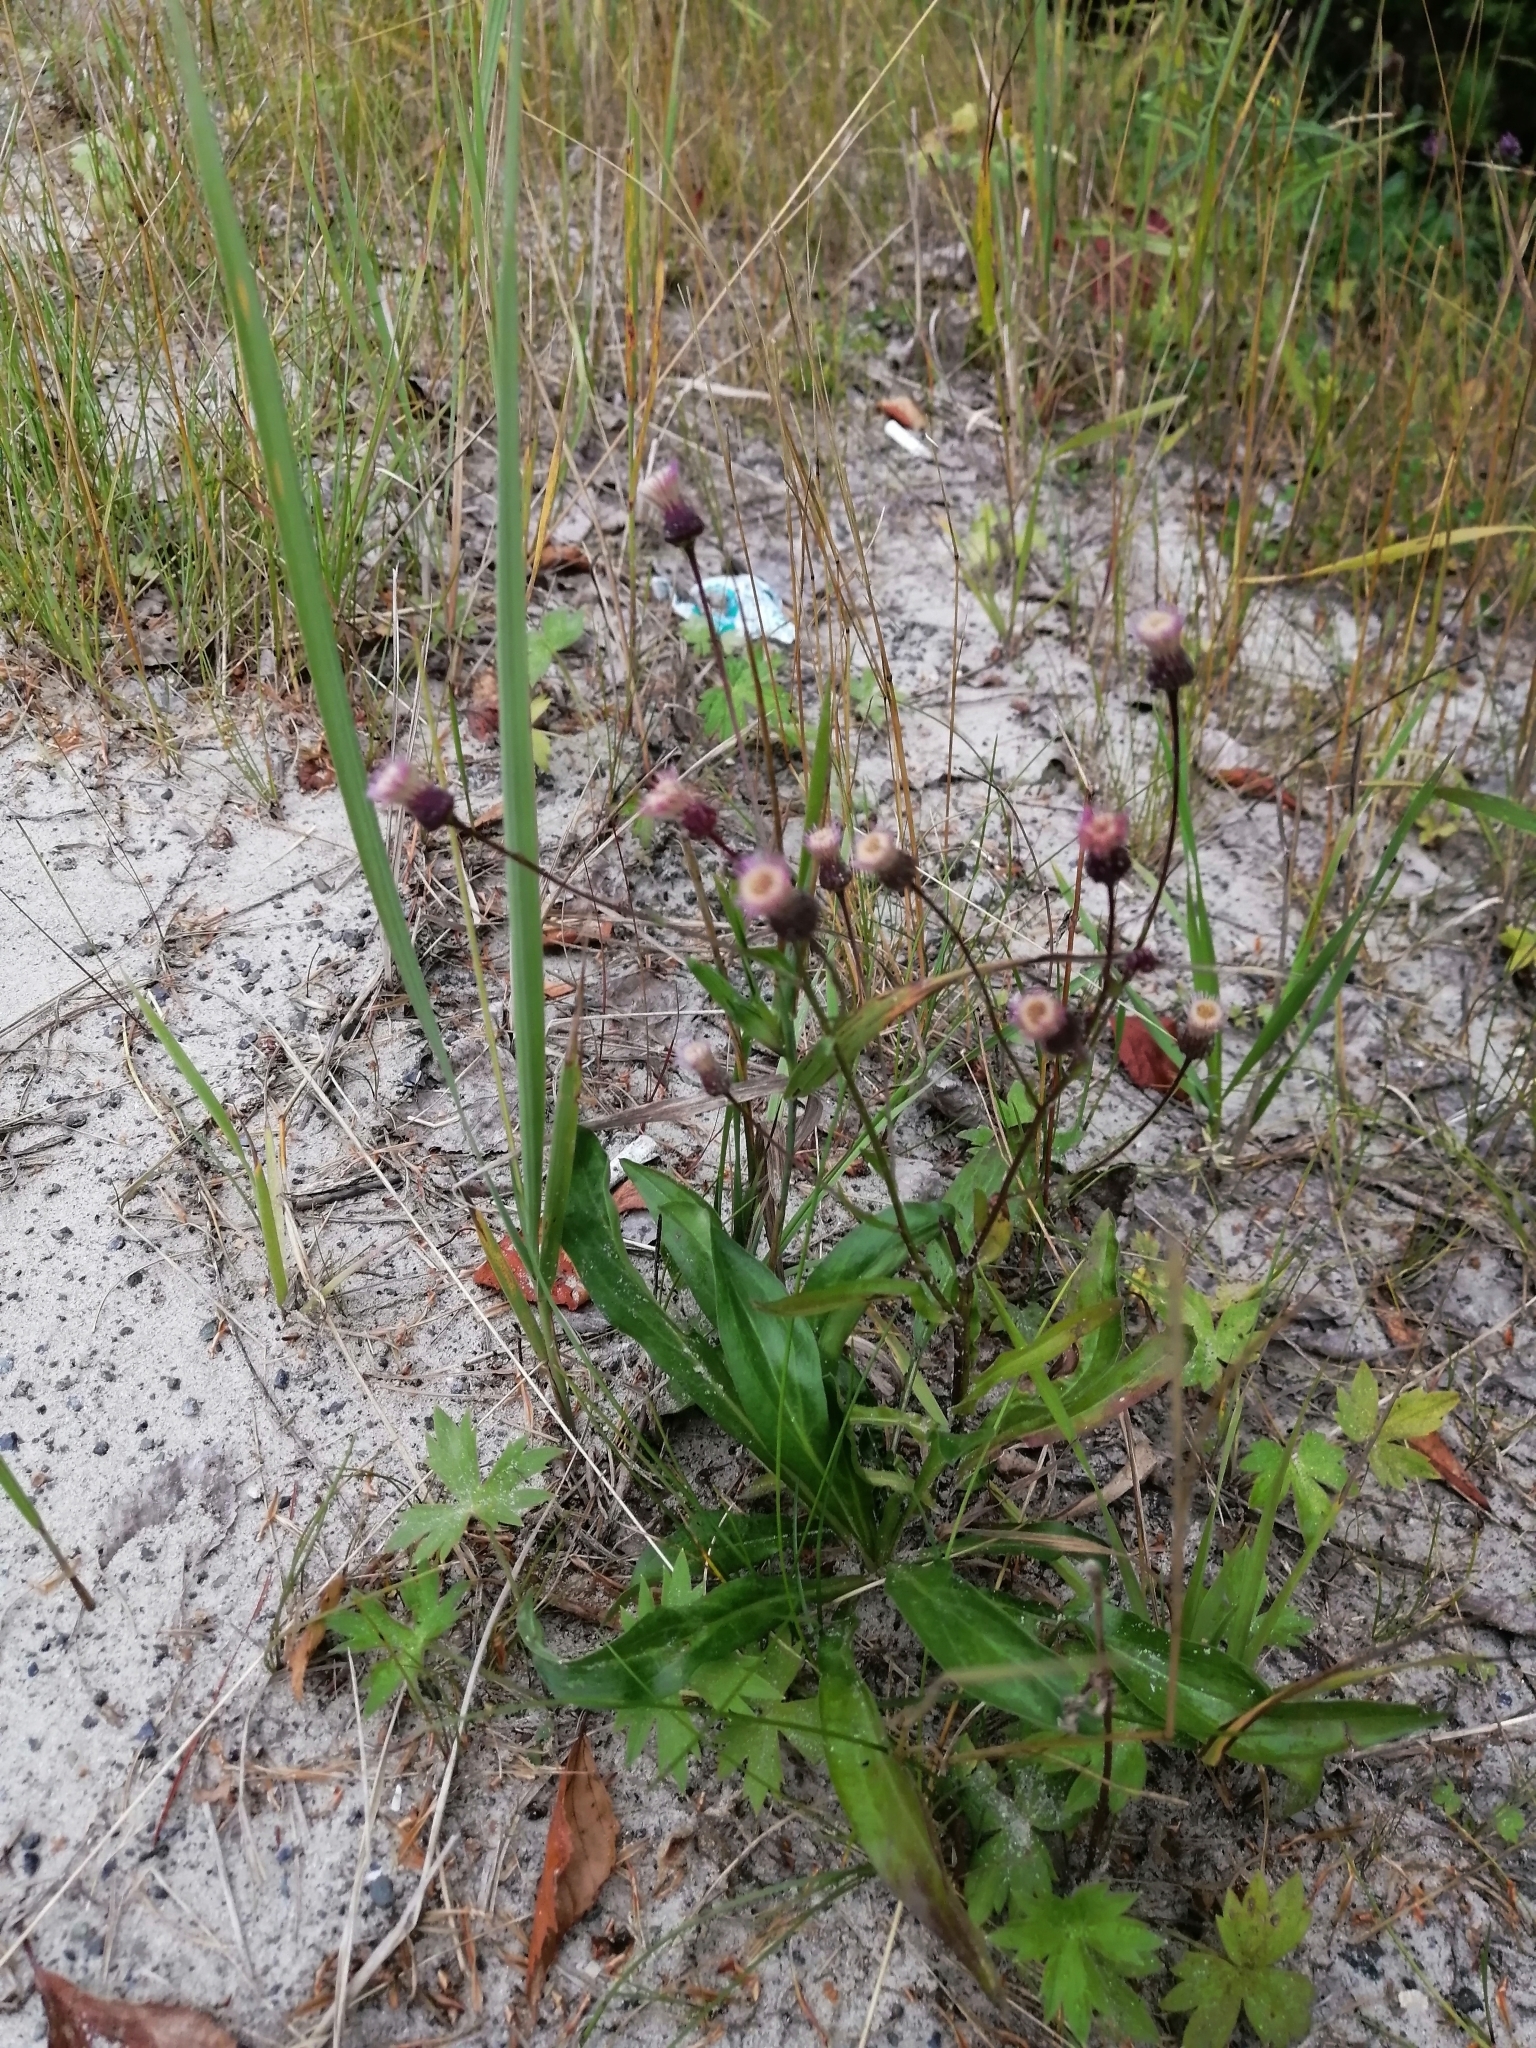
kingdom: Plantae
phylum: Tracheophyta
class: Magnoliopsida
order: Asterales
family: Asteraceae
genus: Erigeron
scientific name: Erigeron acris
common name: Blue fleabane
